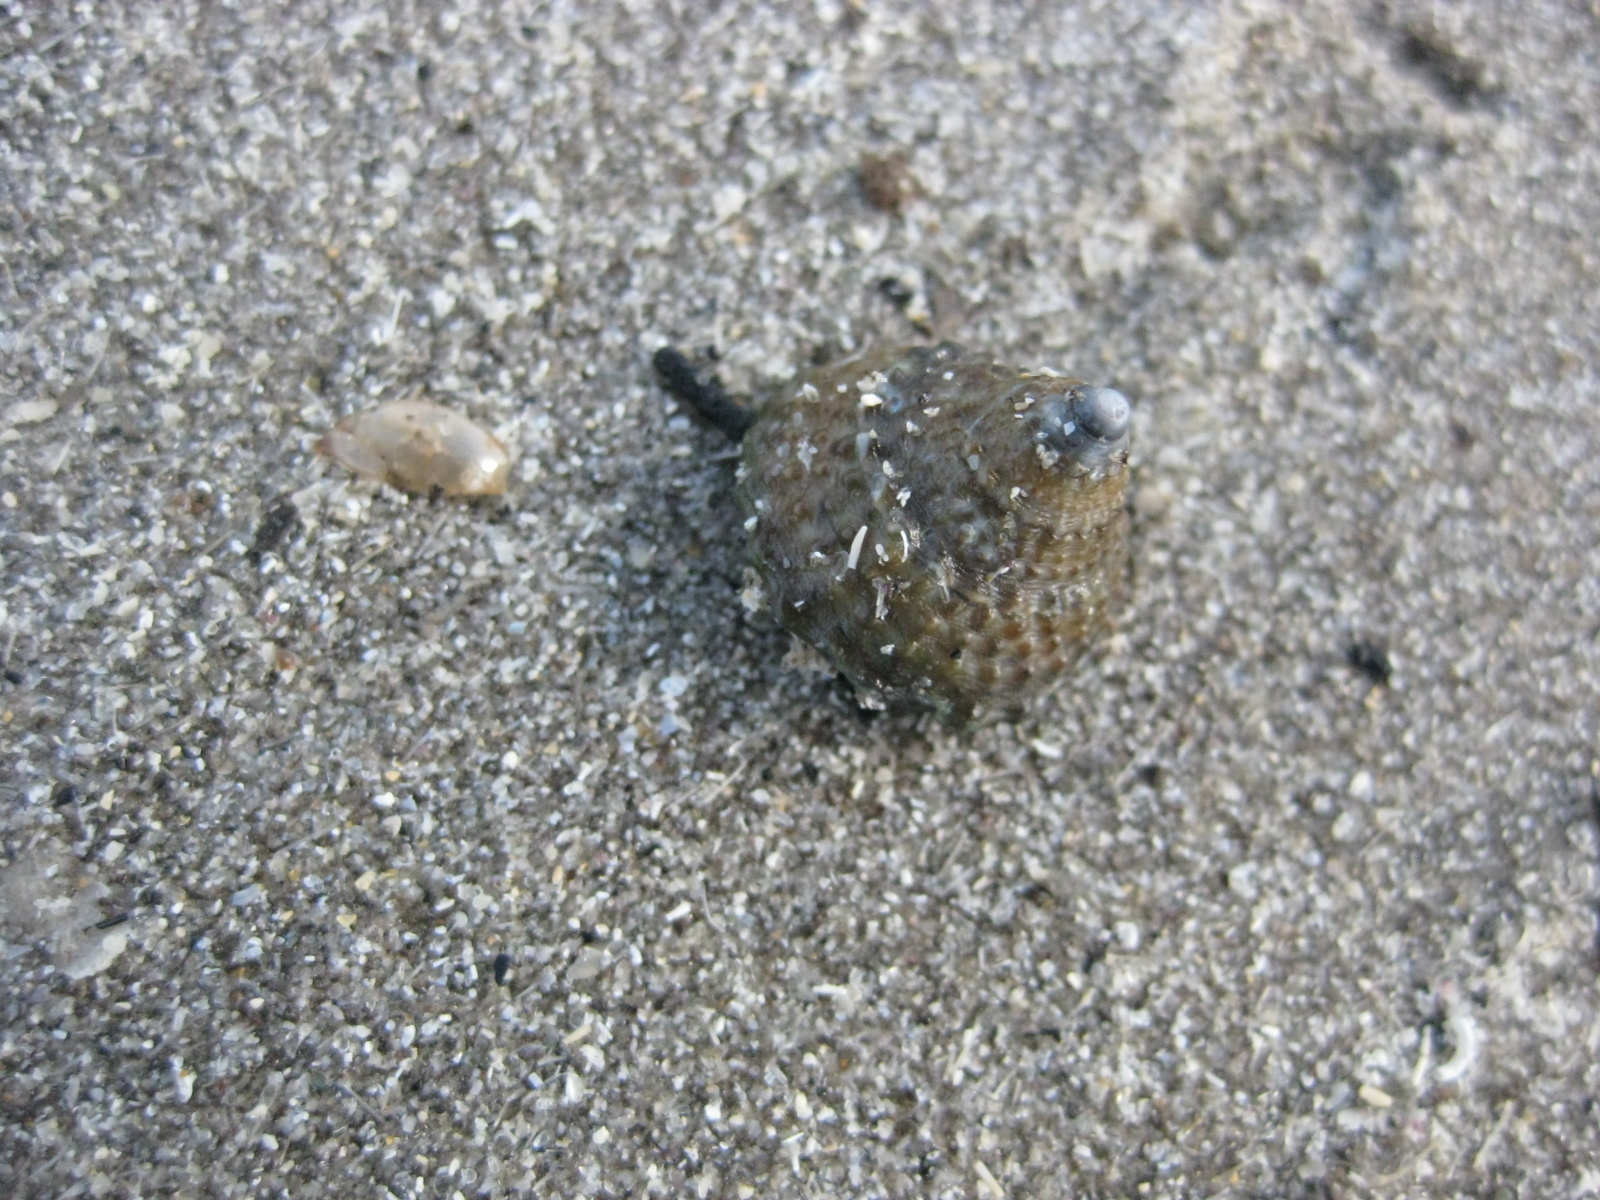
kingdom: Animalia
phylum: Mollusca
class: Gastropoda
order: Trochida
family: Trochidae
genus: Coelotrochus
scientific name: Coelotrochus viridis
